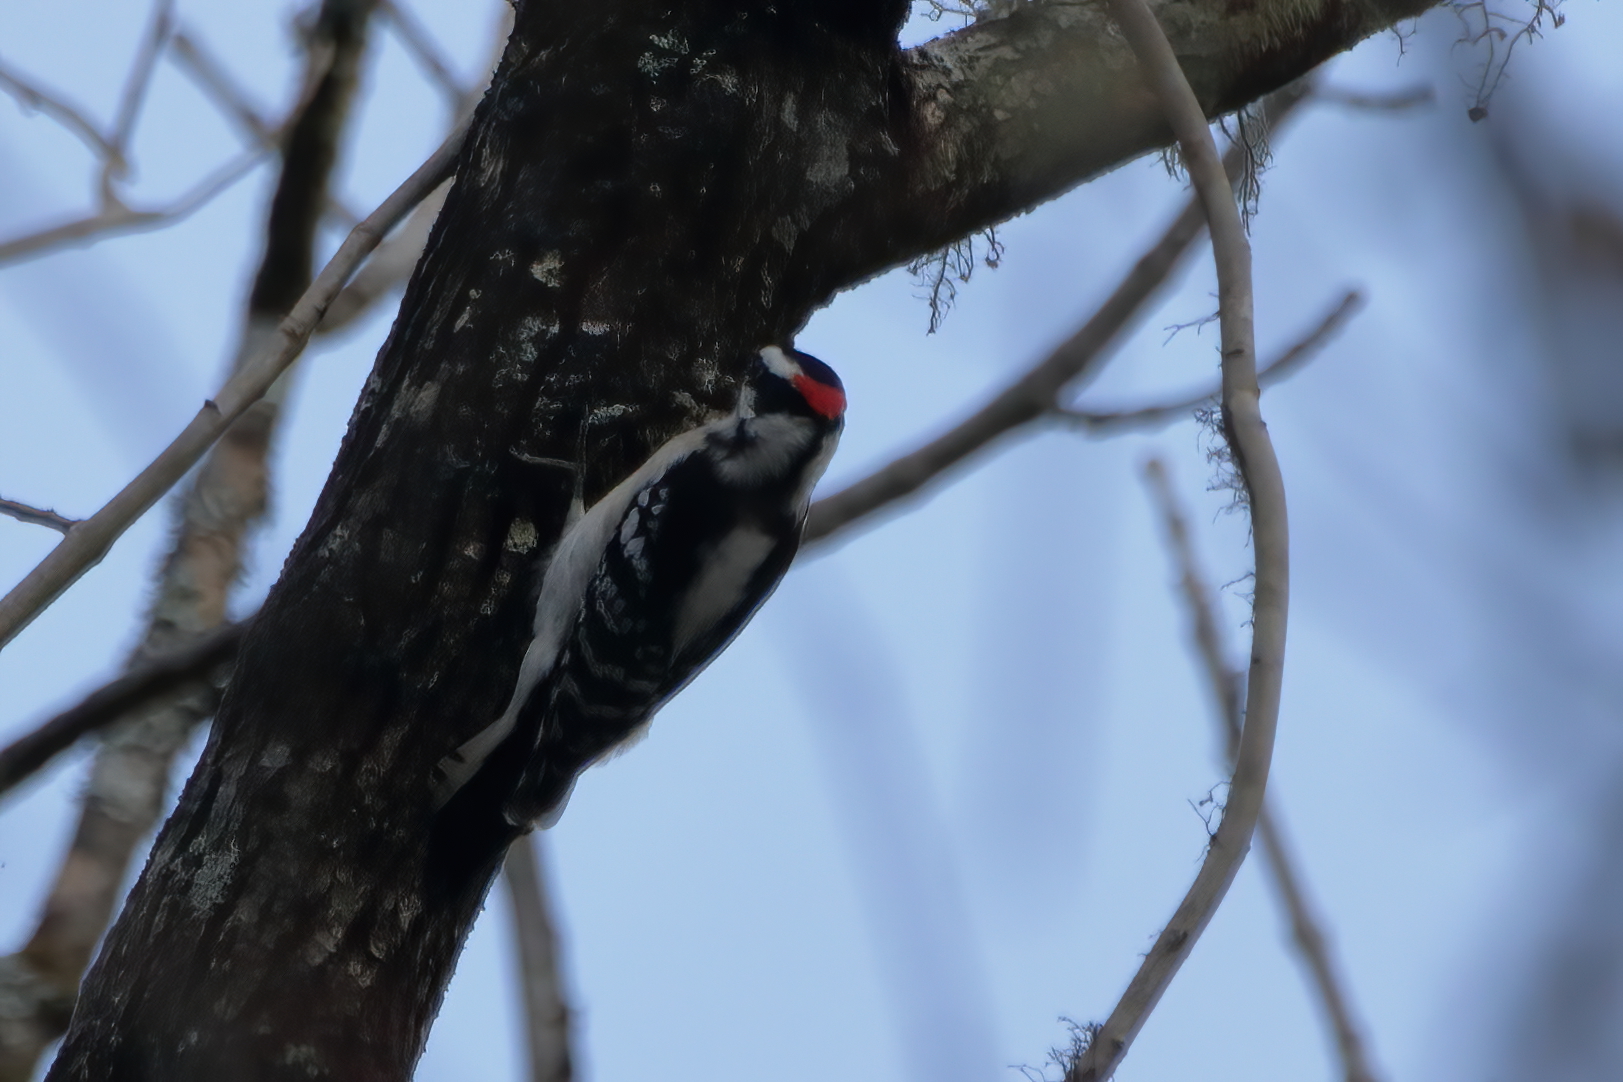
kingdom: Animalia
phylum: Chordata
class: Aves
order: Piciformes
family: Picidae
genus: Dryobates
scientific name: Dryobates pubescens
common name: Downy woodpecker
